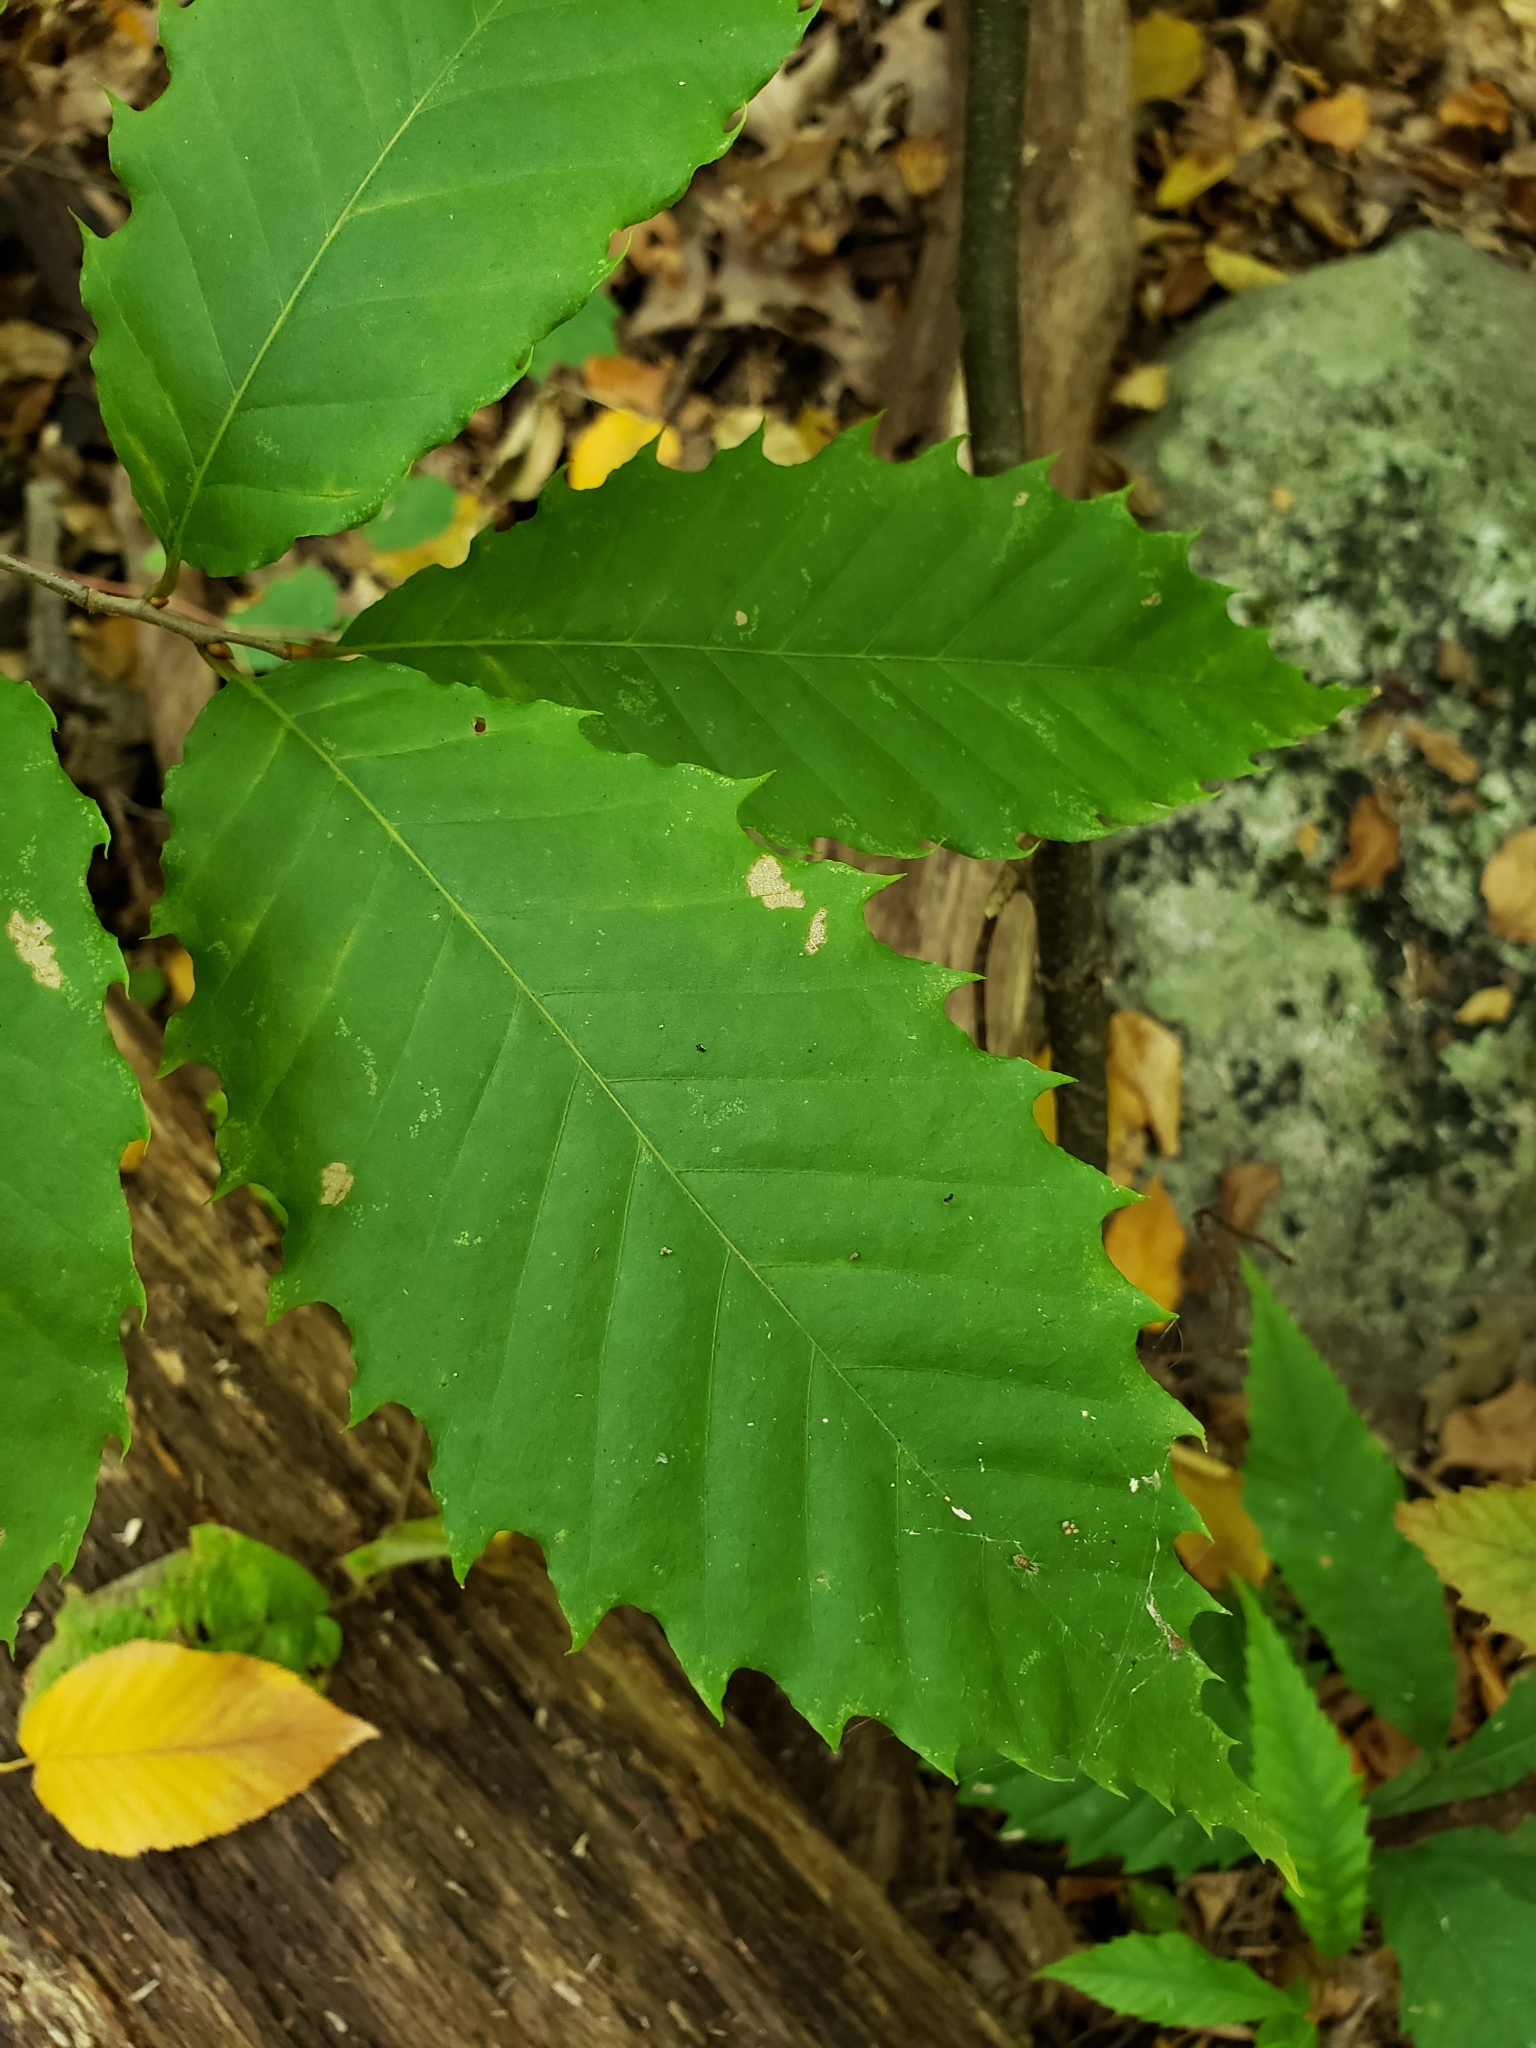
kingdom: Plantae
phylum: Tracheophyta
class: Magnoliopsida
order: Fagales
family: Fagaceae
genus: Castanea
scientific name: Castanea dentata
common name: American chestnut
